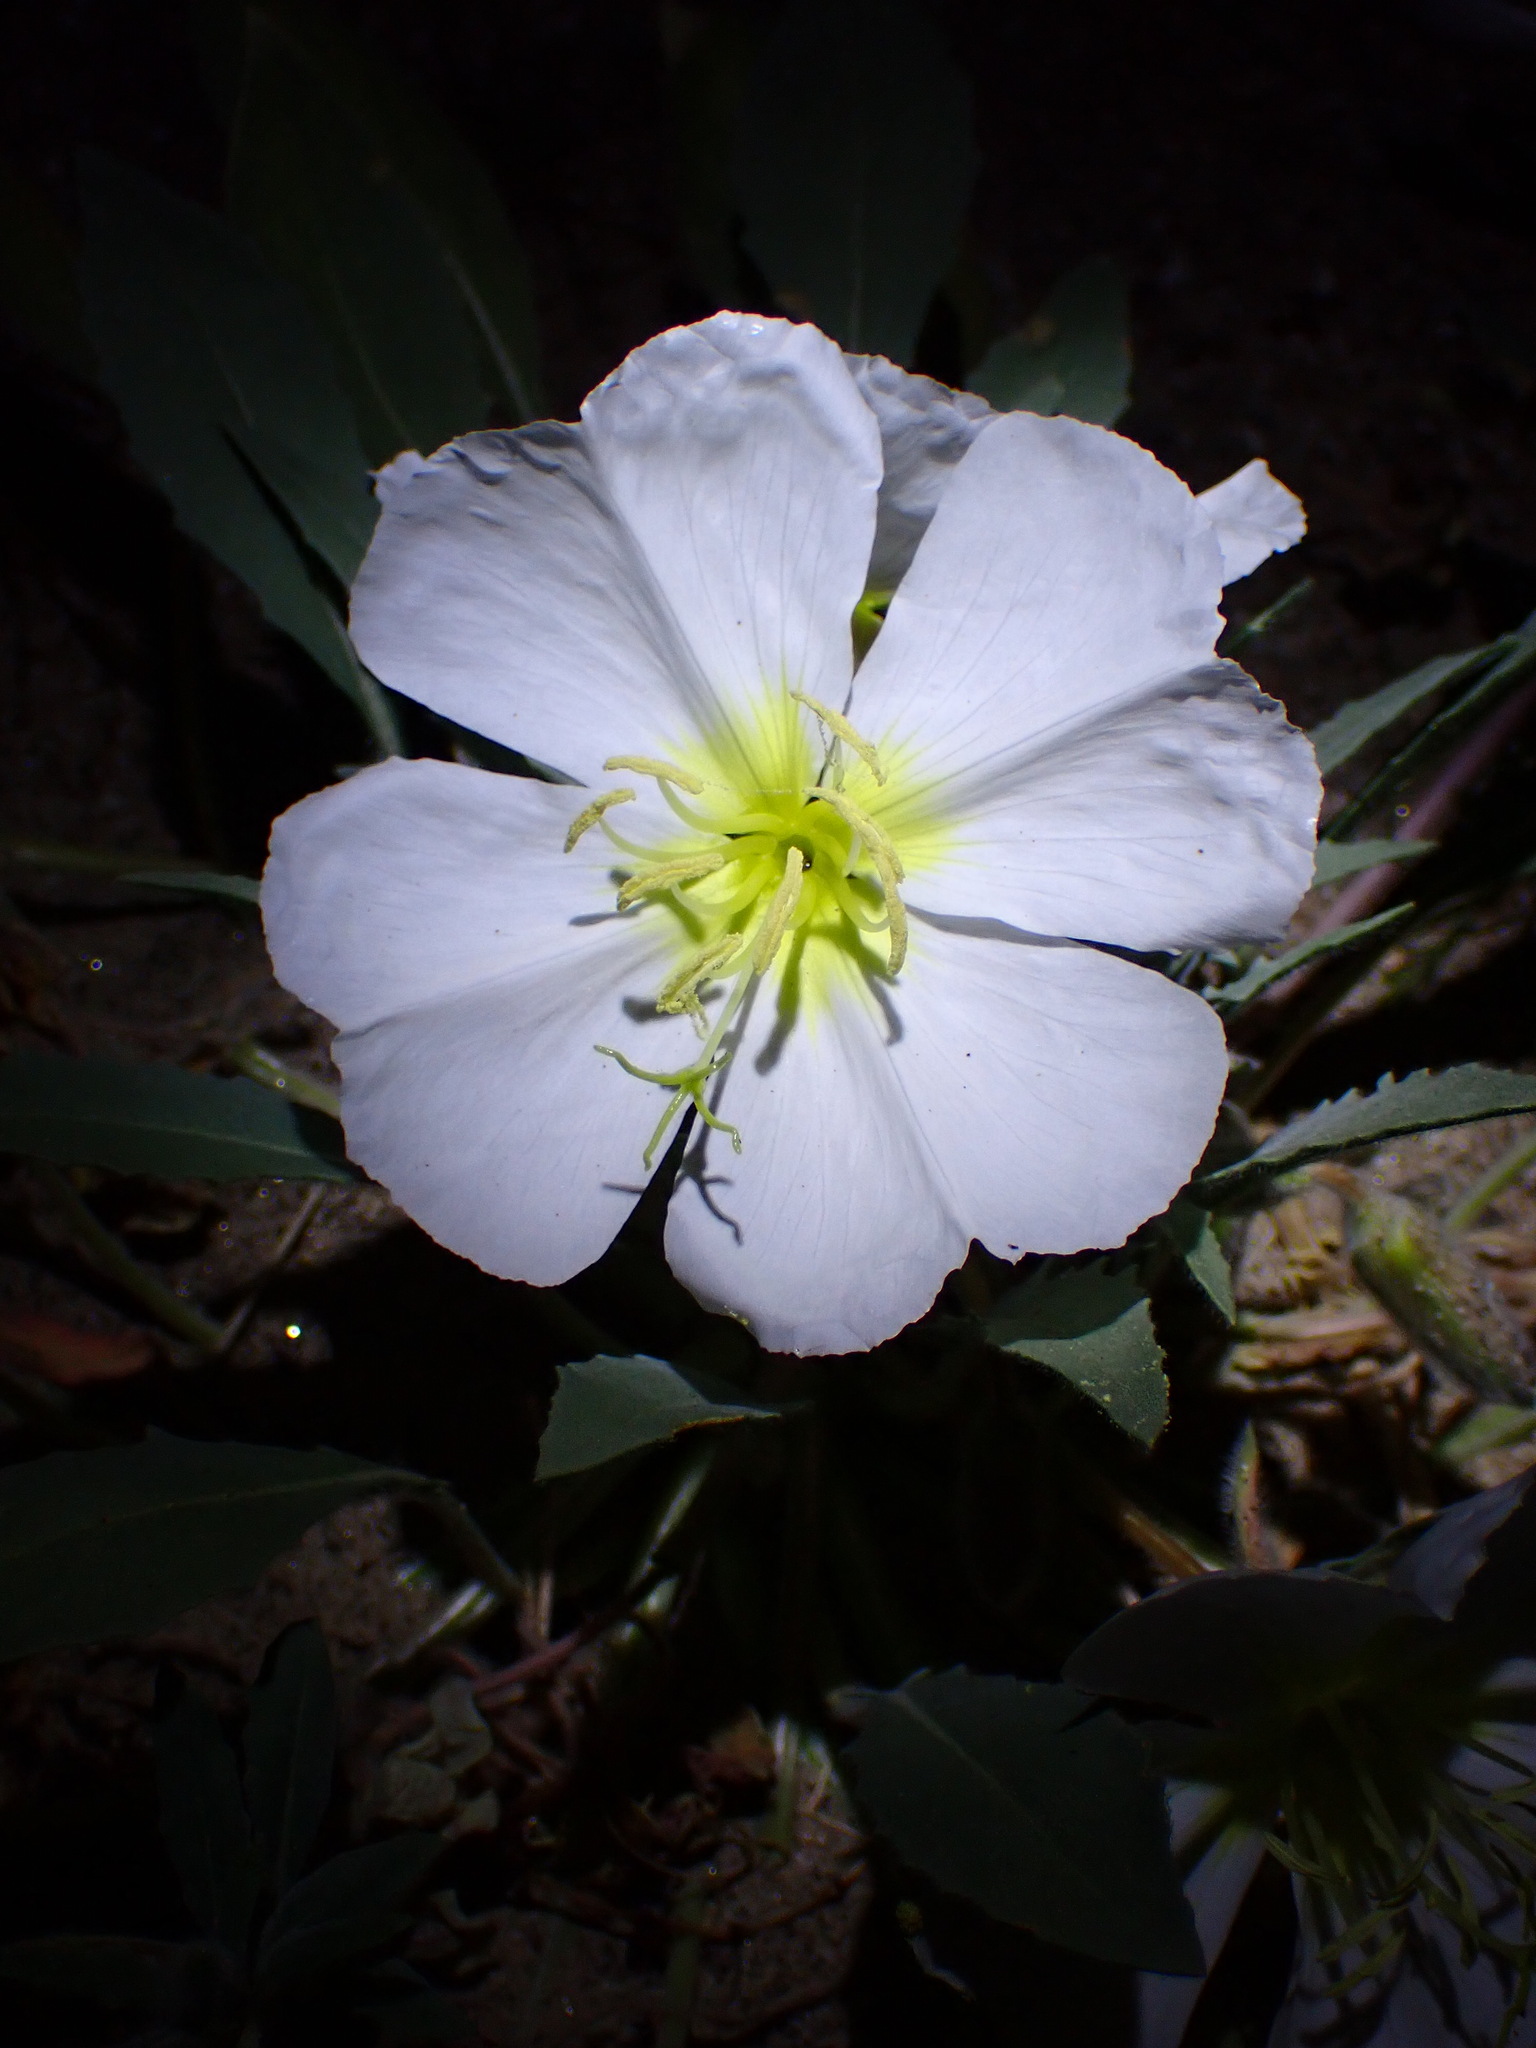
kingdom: Plantae
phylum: Tracheophyta
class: Magnoliopsida
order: Myrtales
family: Onagraceae
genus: Oenothera
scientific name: Oenothera deltoides
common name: Basket evening-primrose
